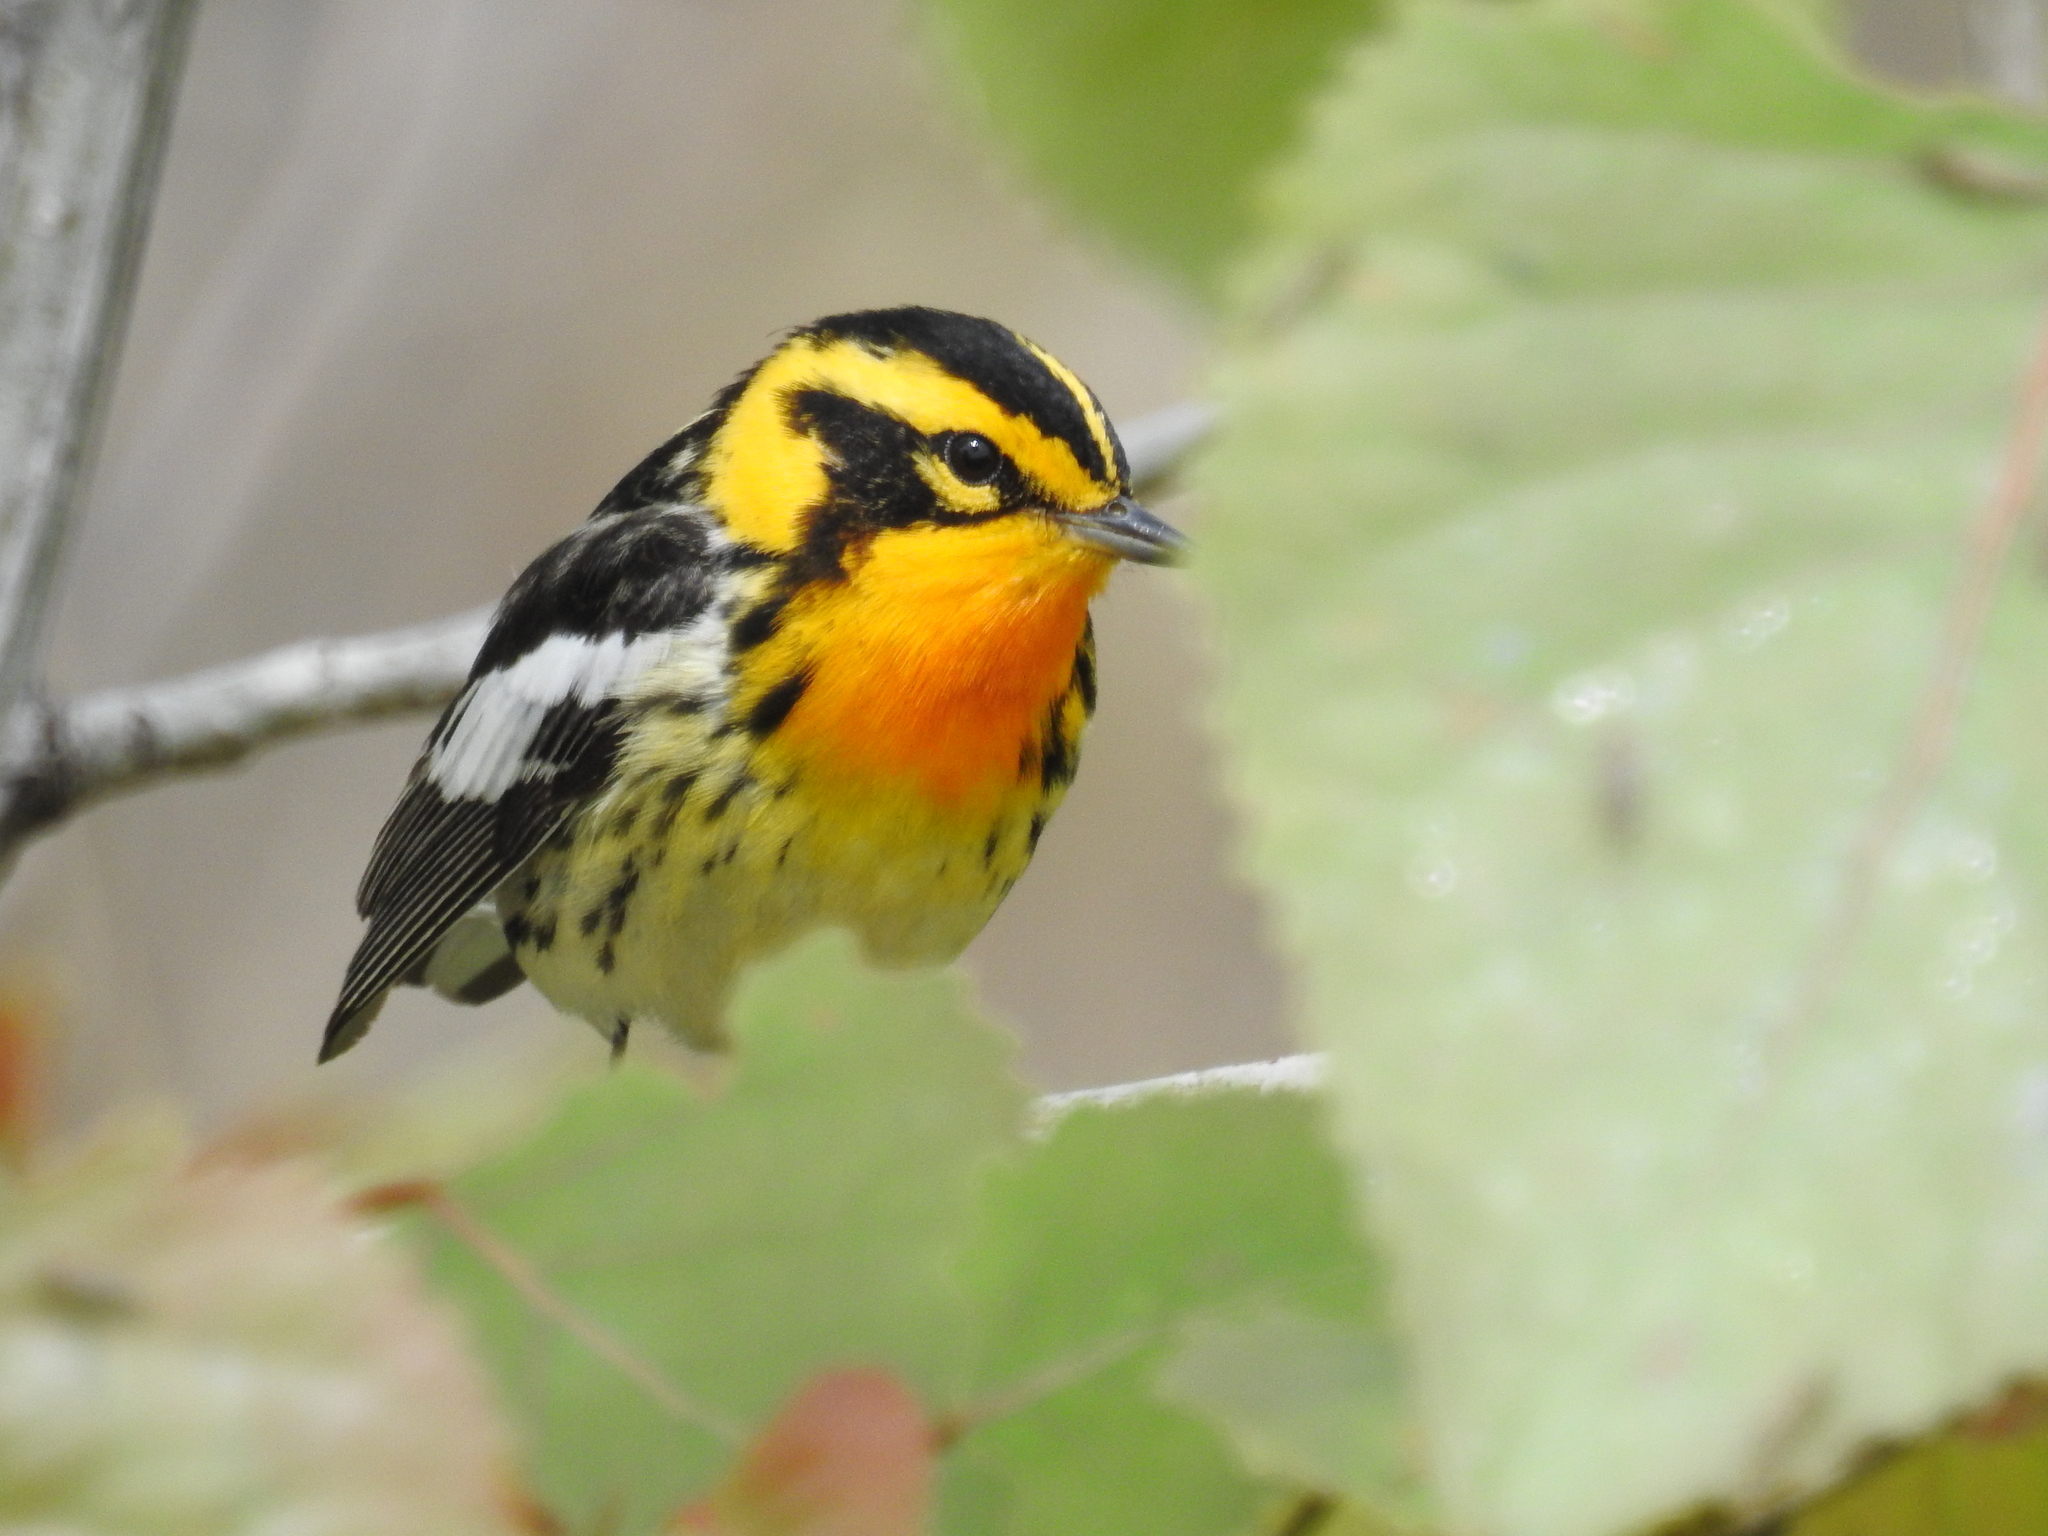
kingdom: Animalia
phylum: Chordata
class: Aves
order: Passeriformes
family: Parulidae
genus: Setophaga
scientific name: Setophaga fusca
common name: Blackburnian warbler
